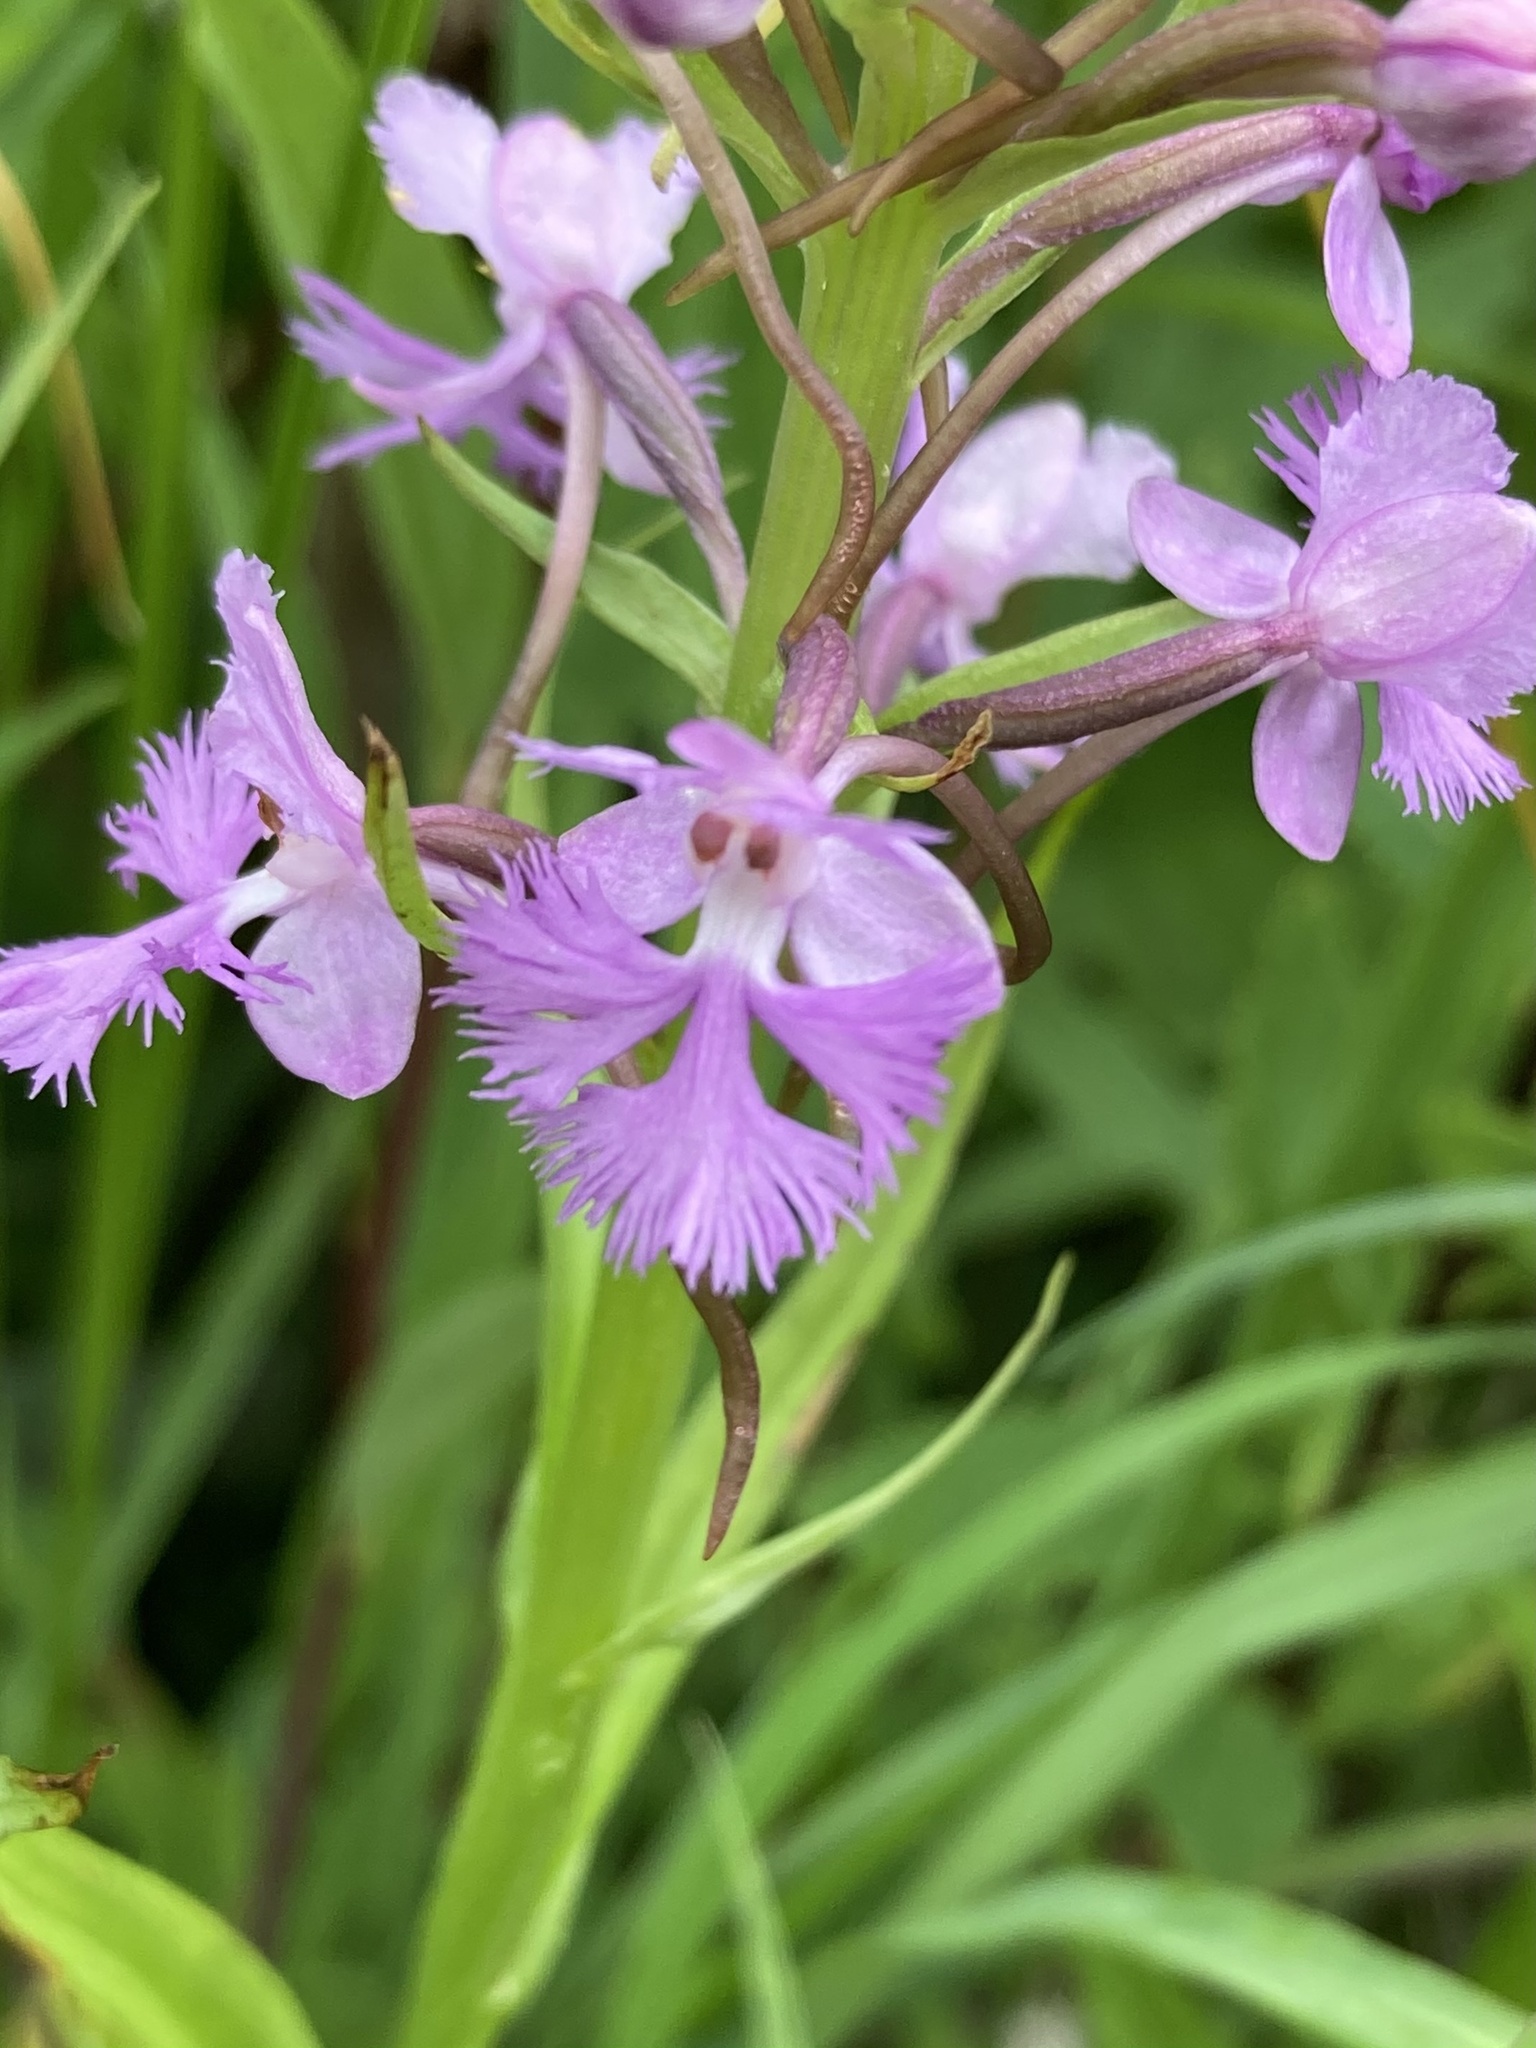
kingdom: Plantae
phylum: Tracheophyta
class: Liliopsida
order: Asparagales
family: Orchidaceae
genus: Platanthera
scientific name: Platanthera psycodes
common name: Lesser purple fringed orchid
